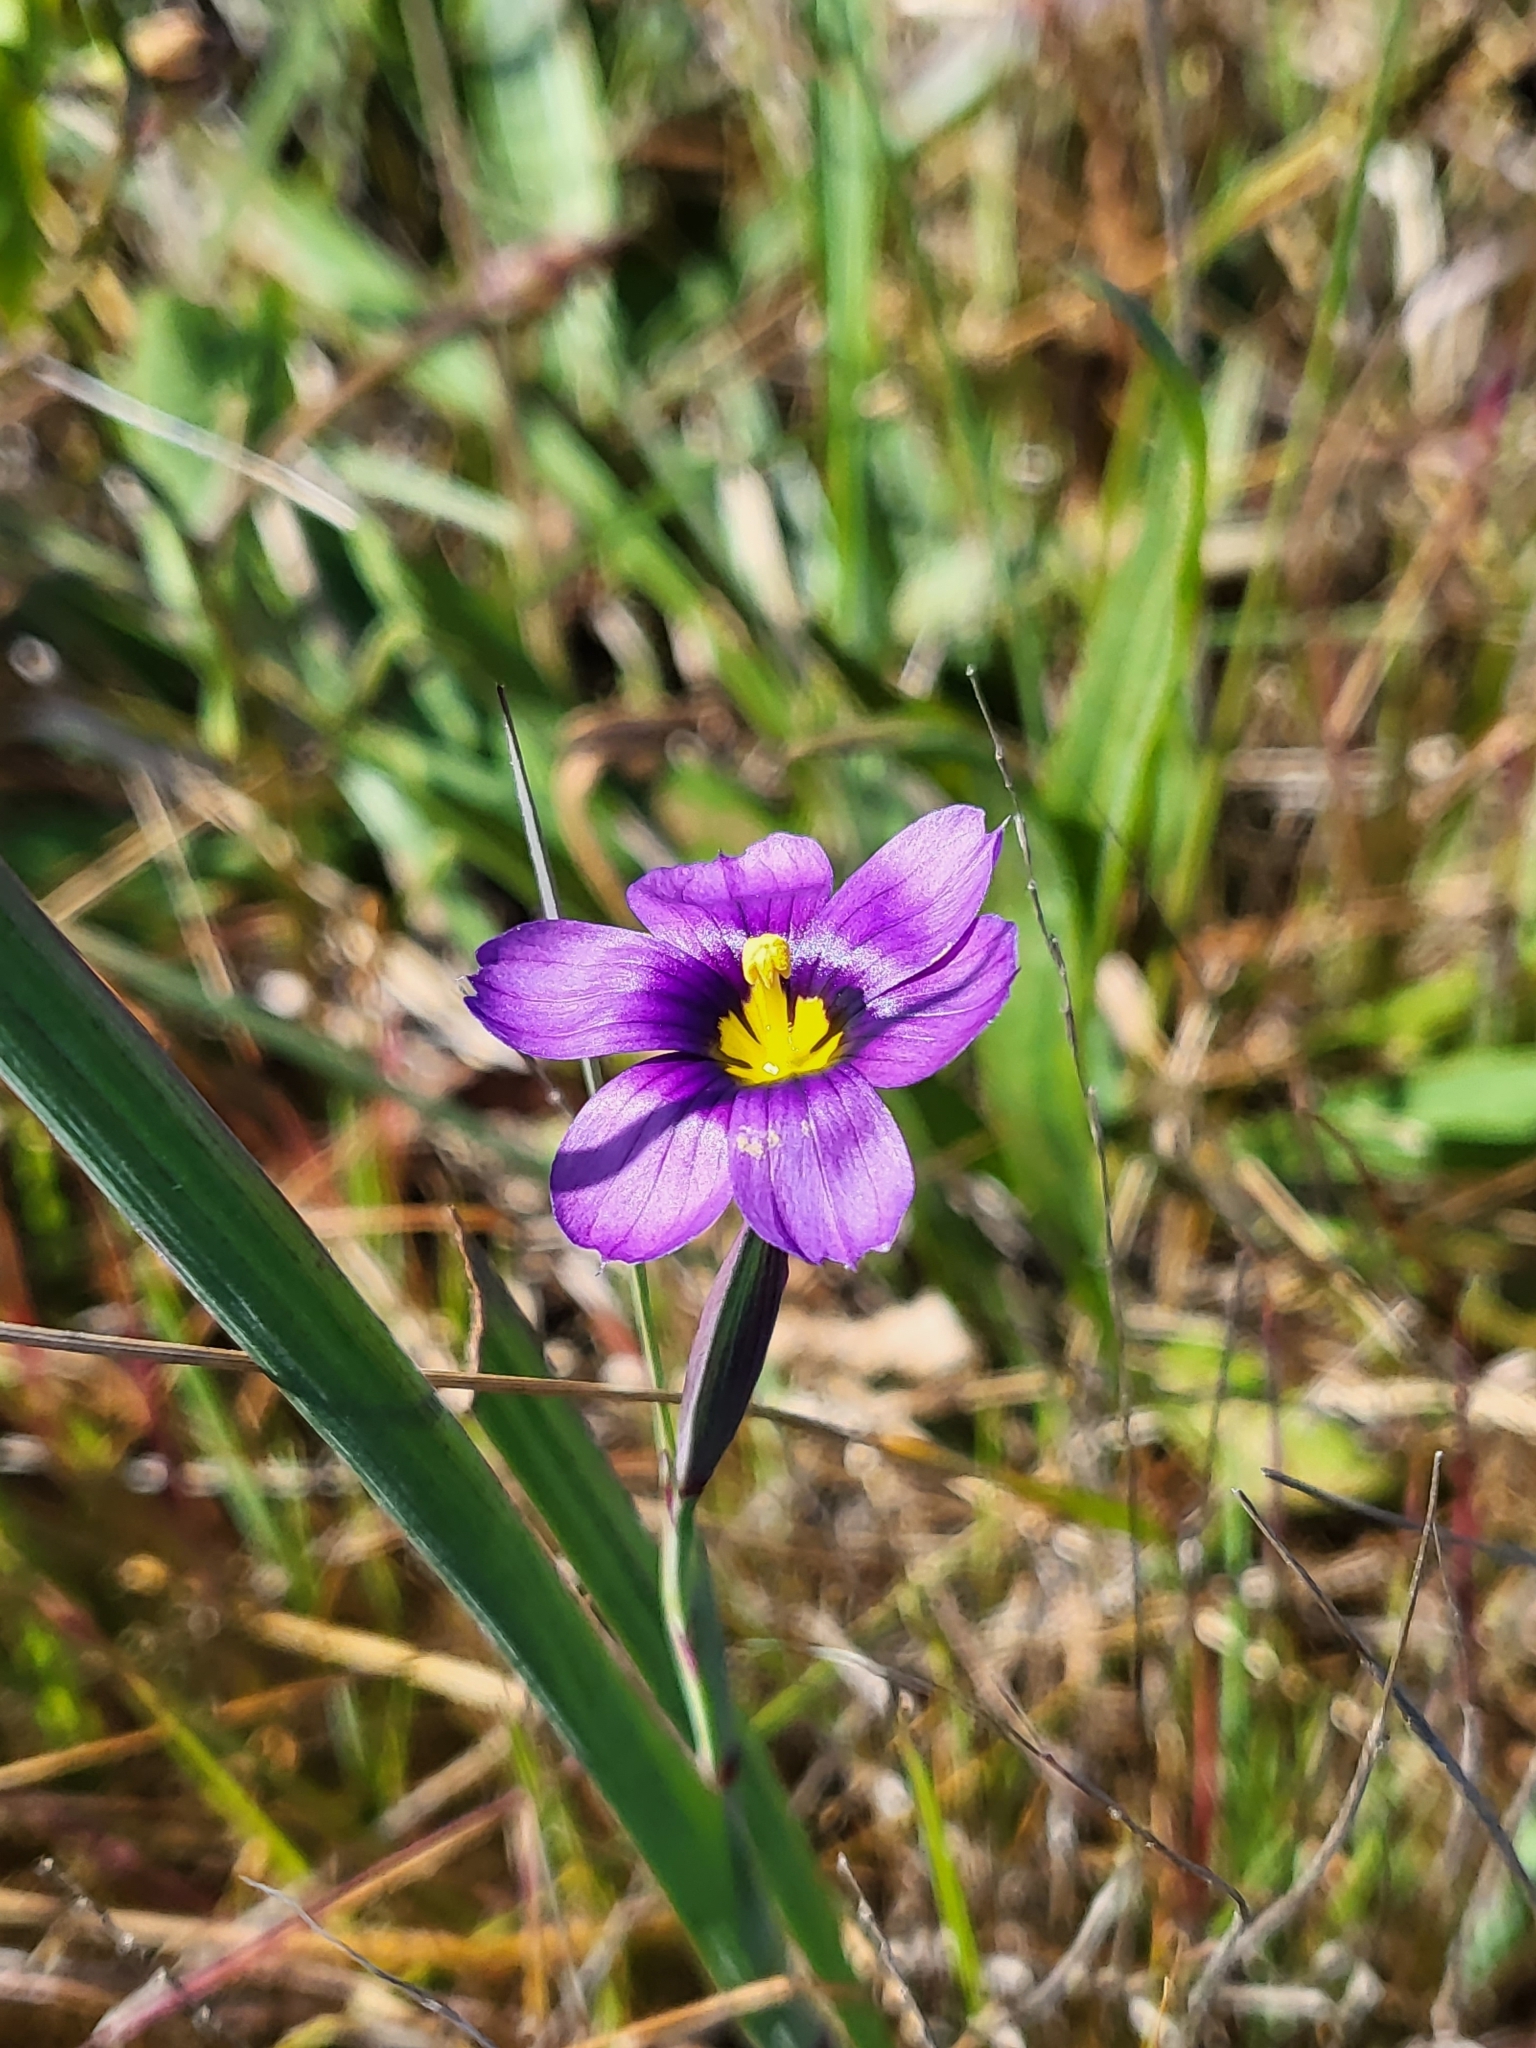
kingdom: Plantae
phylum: Tracheophyta
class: Liliopsida
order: Asparagales
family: Iridaceae
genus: Sisyrinchium
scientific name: Sisyrinchium bellum
